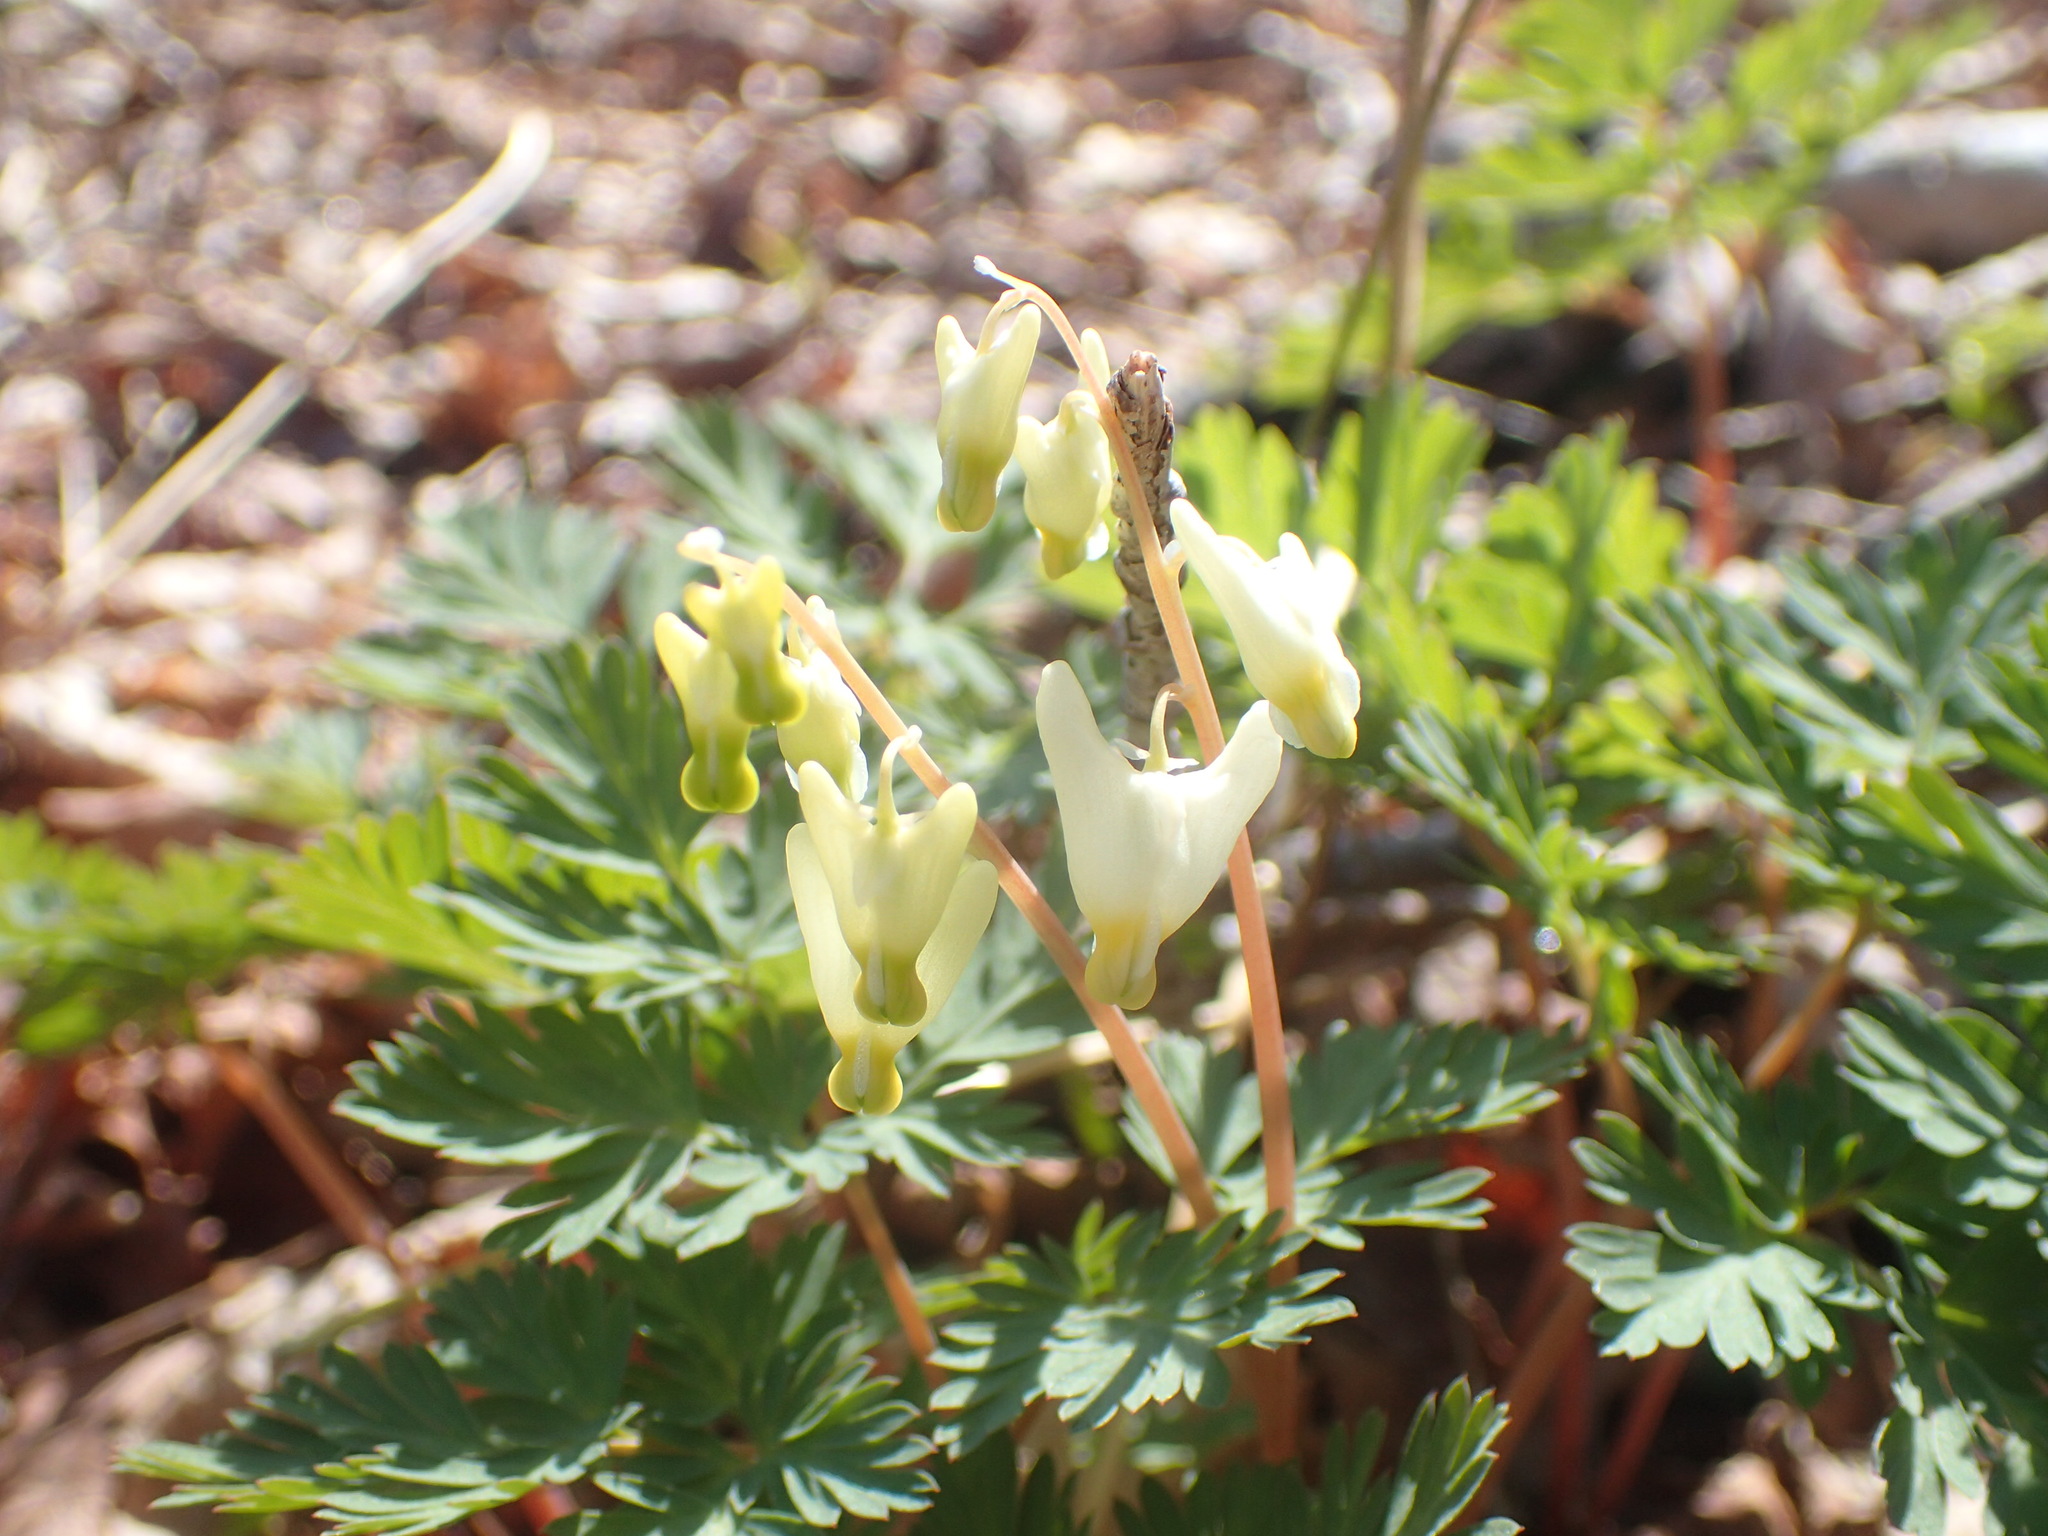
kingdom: Plantae
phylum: Tracheophyta
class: Magnoliopsida
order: Ranunculales
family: Papaveraceae
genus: Dicentra
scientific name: Dicentra cucullaria
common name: Dutchman's breeches
